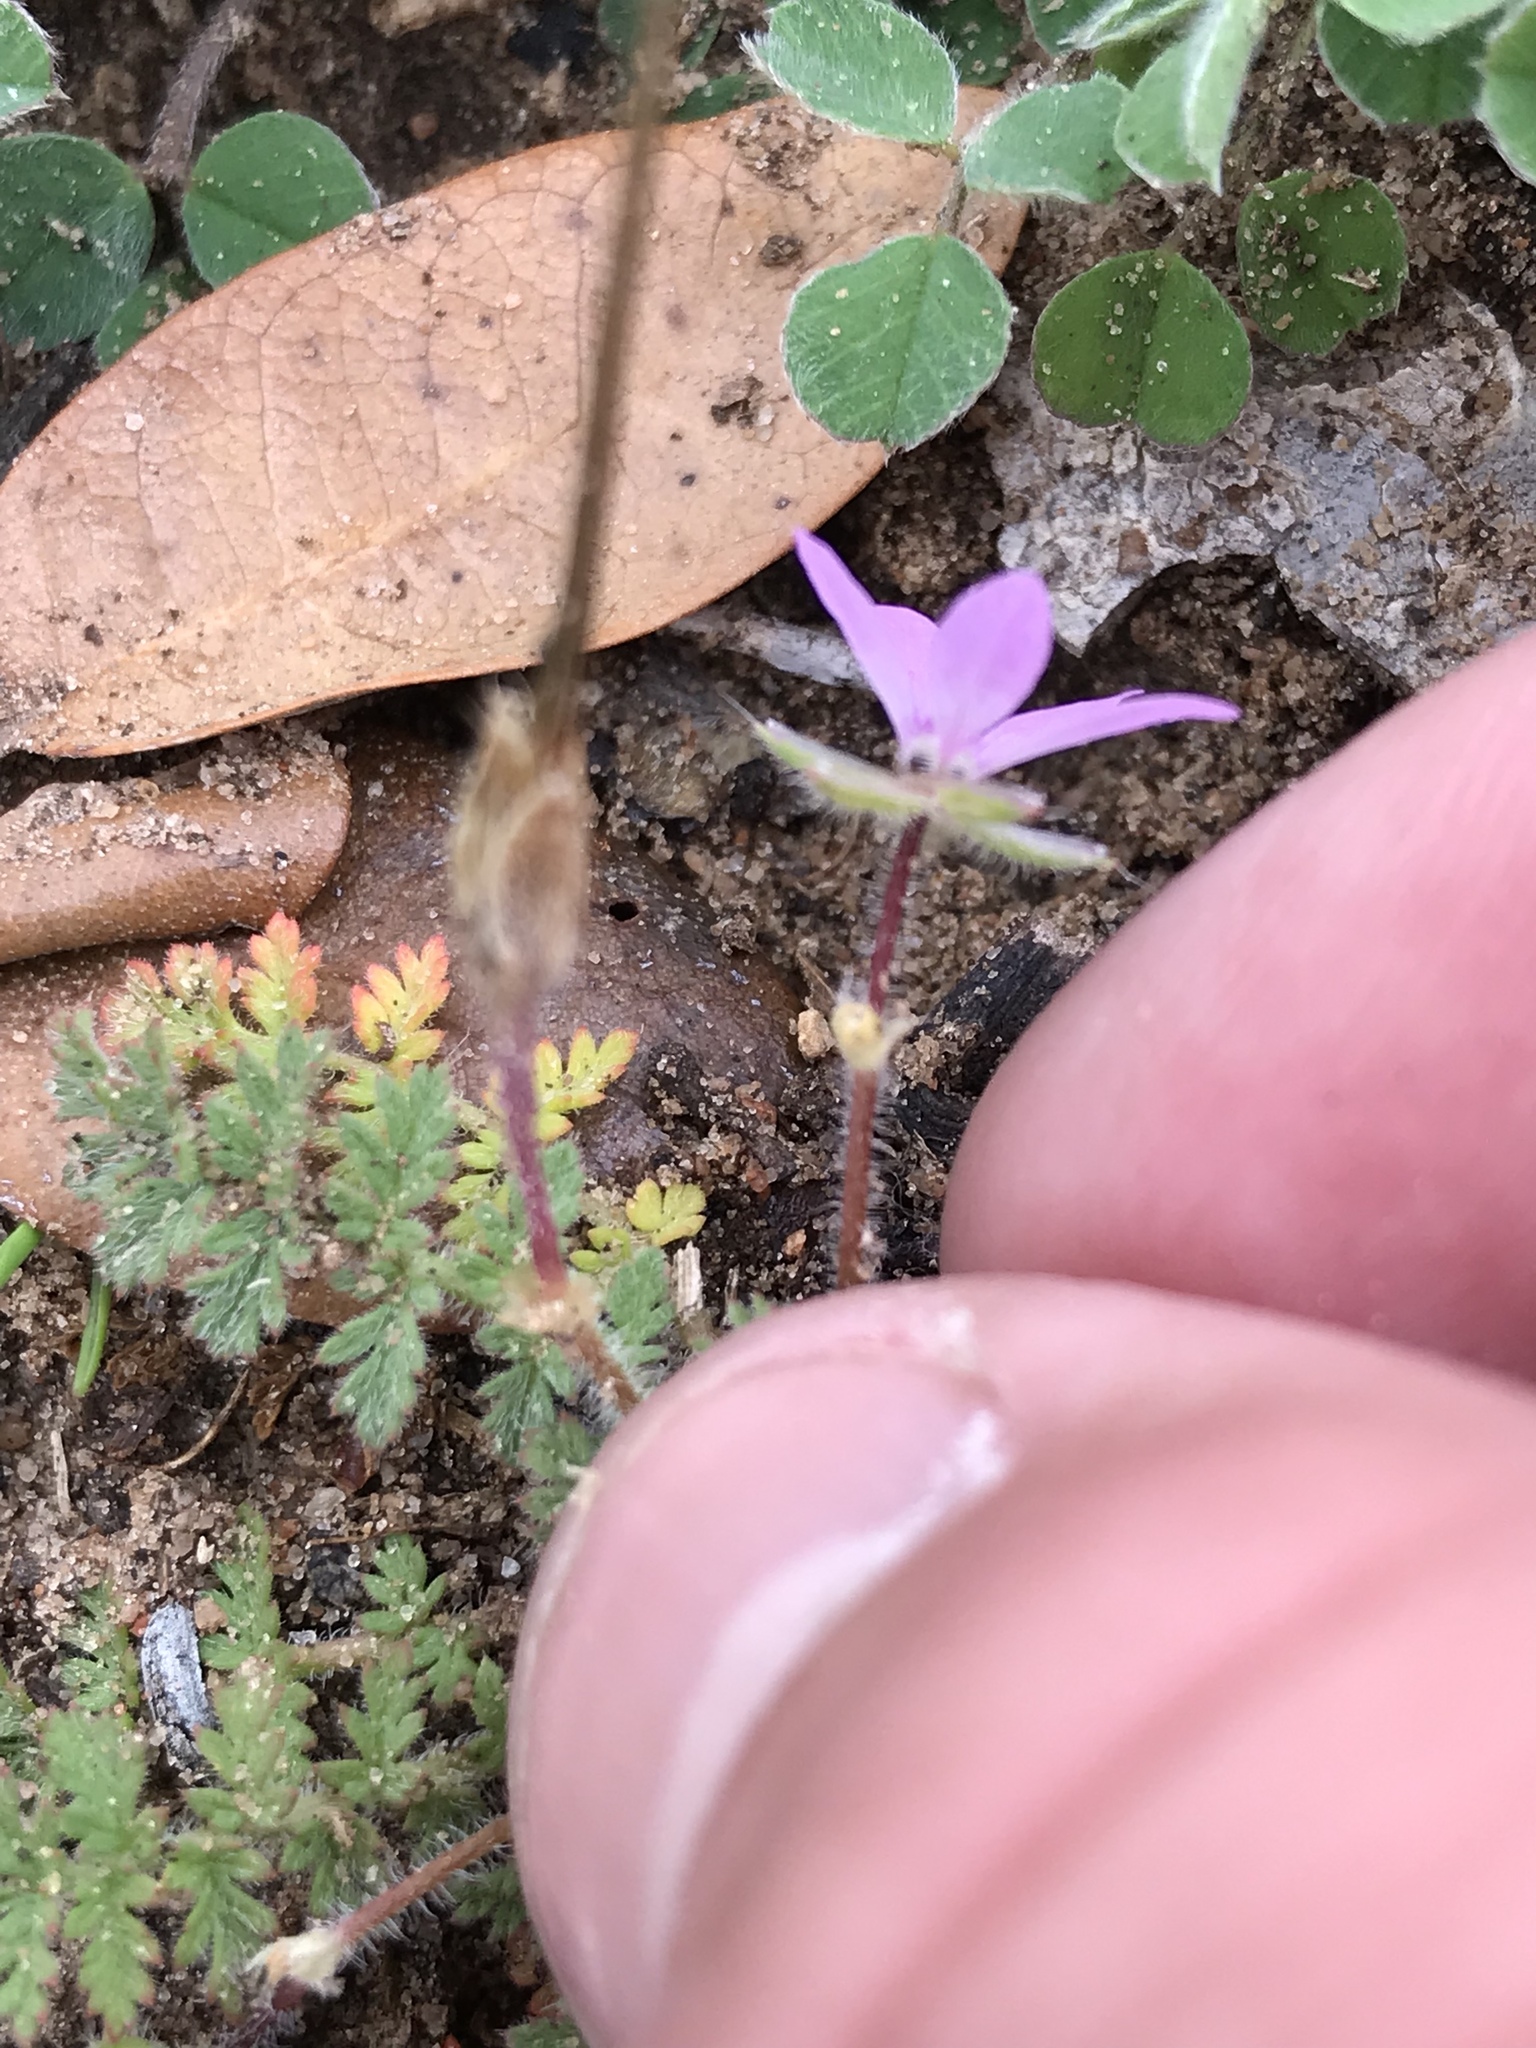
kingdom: Plantae
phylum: Tracheophyta
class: Magnoliopsida
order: Geraniales
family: Geraniaceae
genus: Erodium
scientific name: Erodium cicutarium
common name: Common stork's-bill
